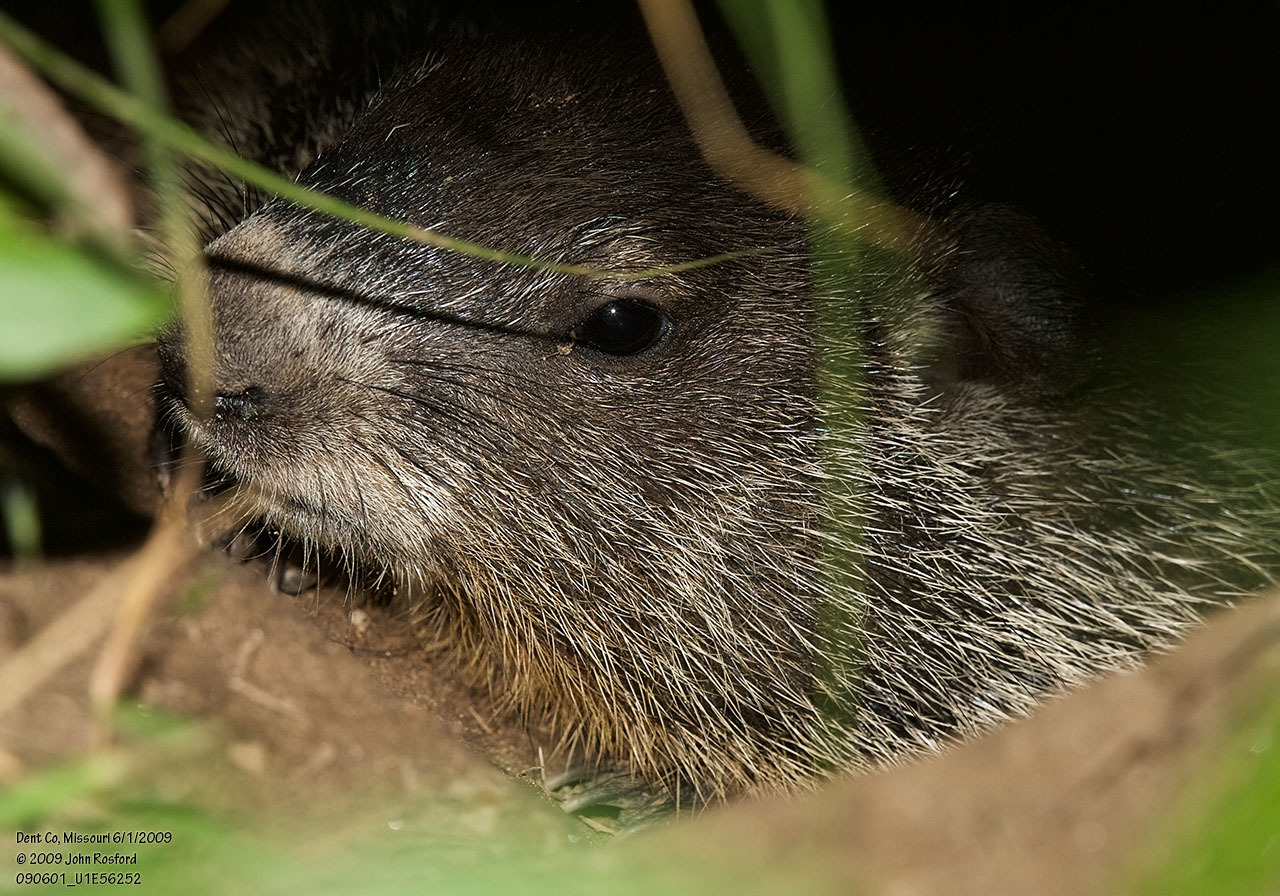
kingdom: Animalia
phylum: Chordata
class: Mammalia
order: Rodentia
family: Sciuridae
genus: Marmota
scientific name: Marmota monax
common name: Groundhog
